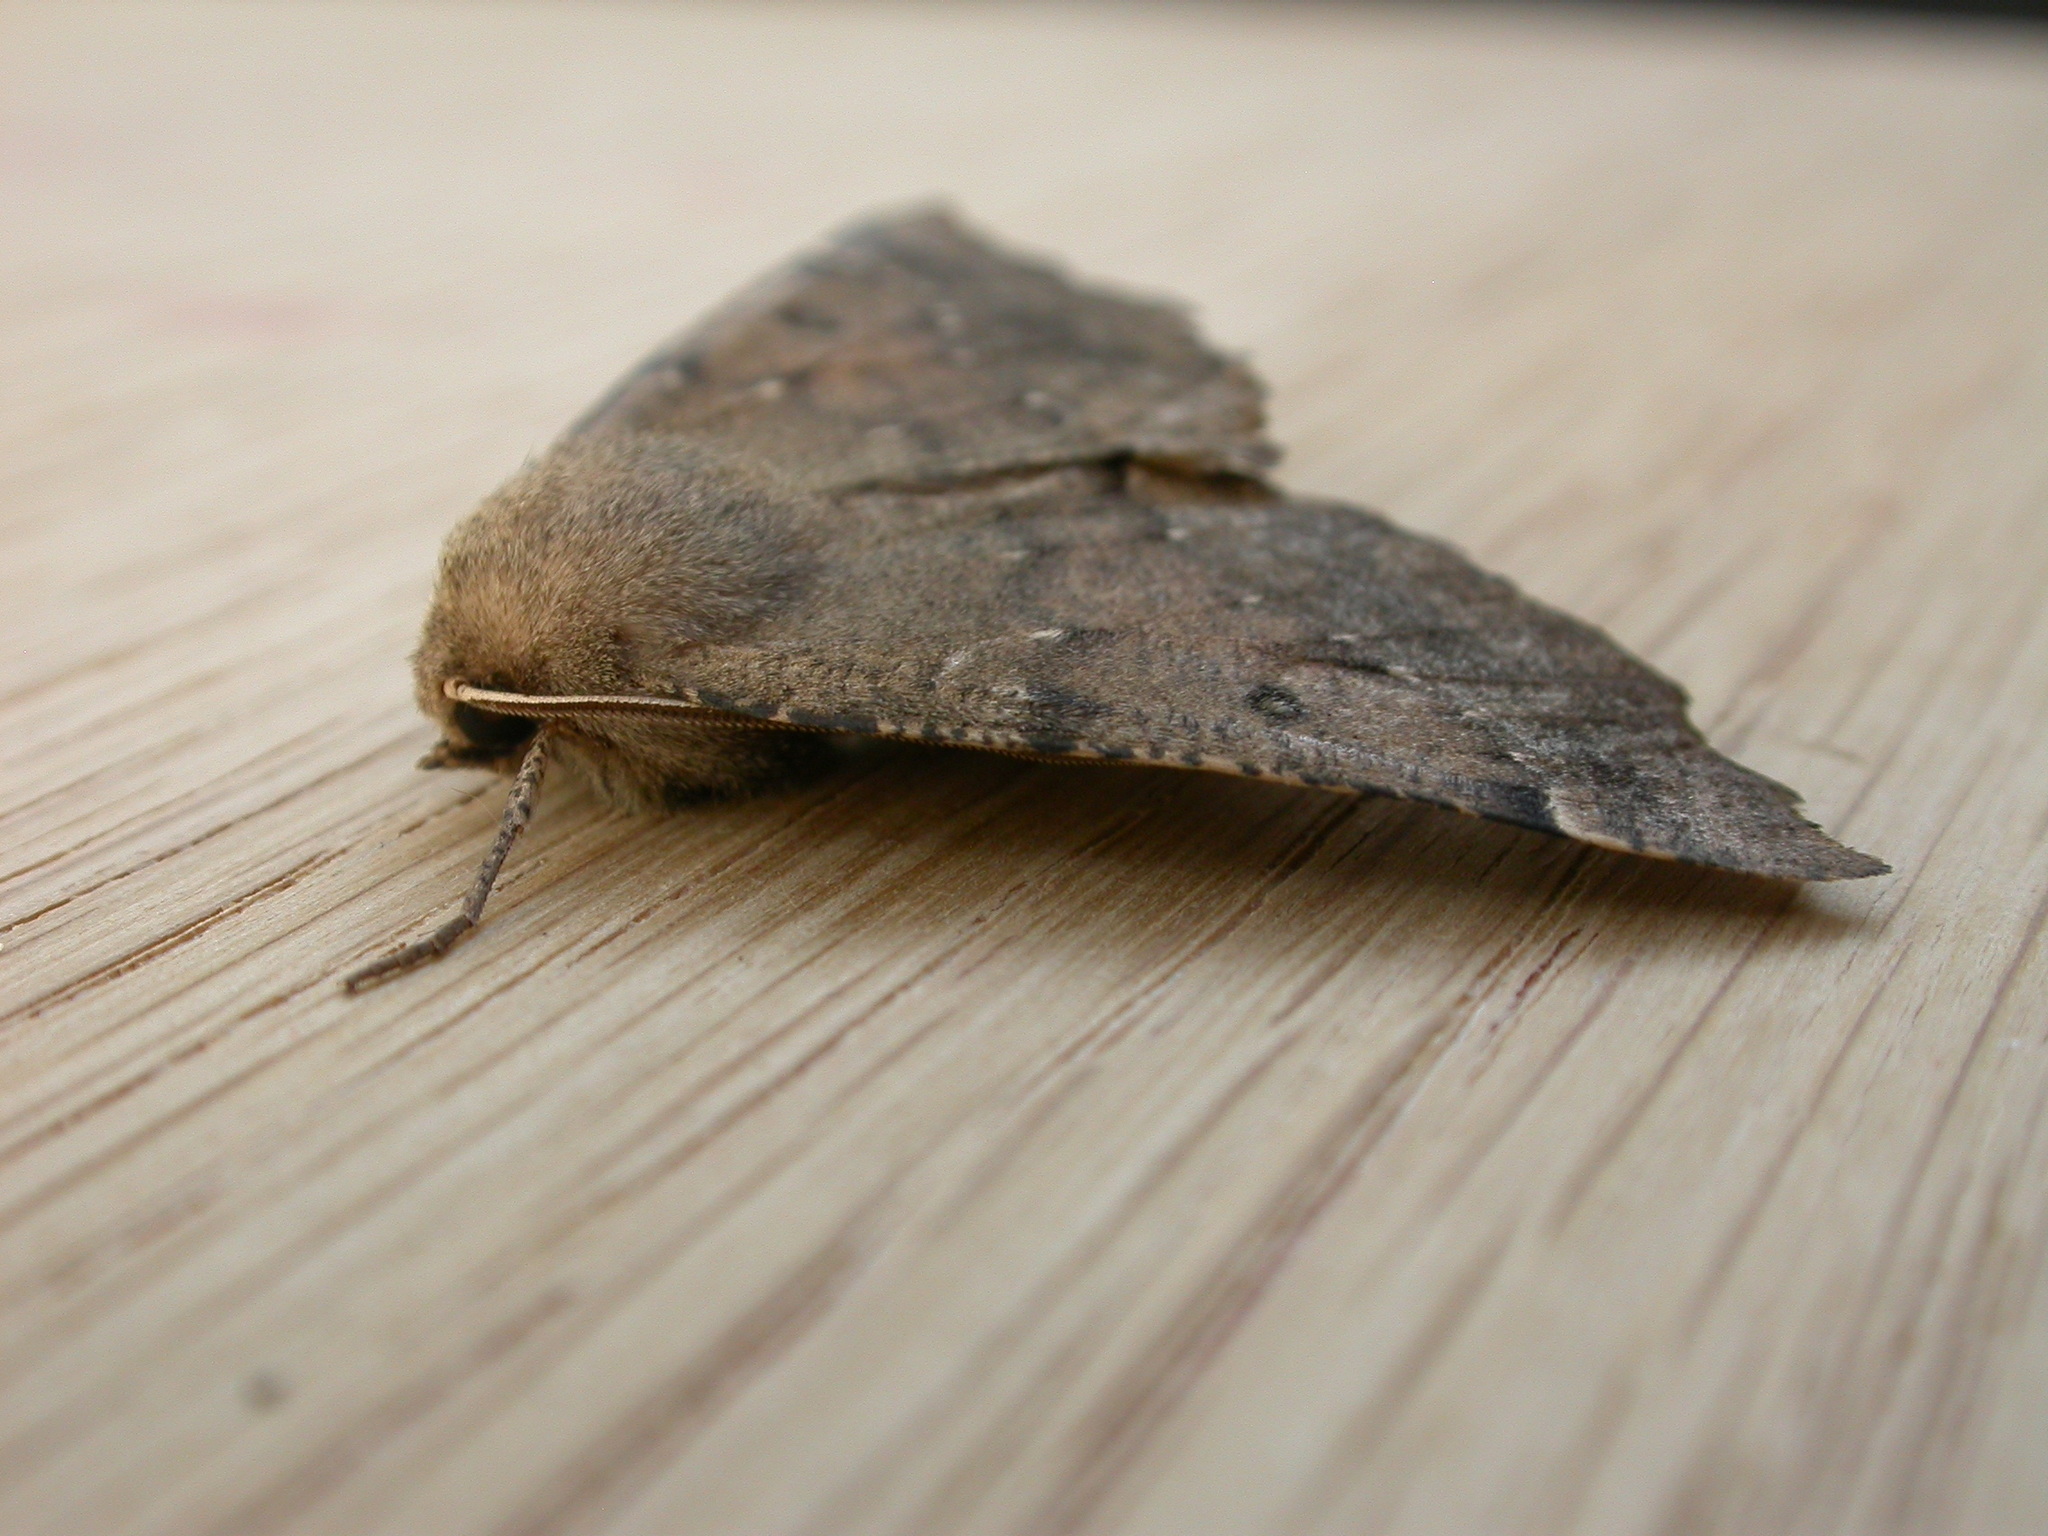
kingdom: Animalia
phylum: Arthropoda
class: Insecta
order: Lepidoptera
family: Geometridae
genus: Odontopera
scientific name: Odontopera bidentata
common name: Scalloped hazel
